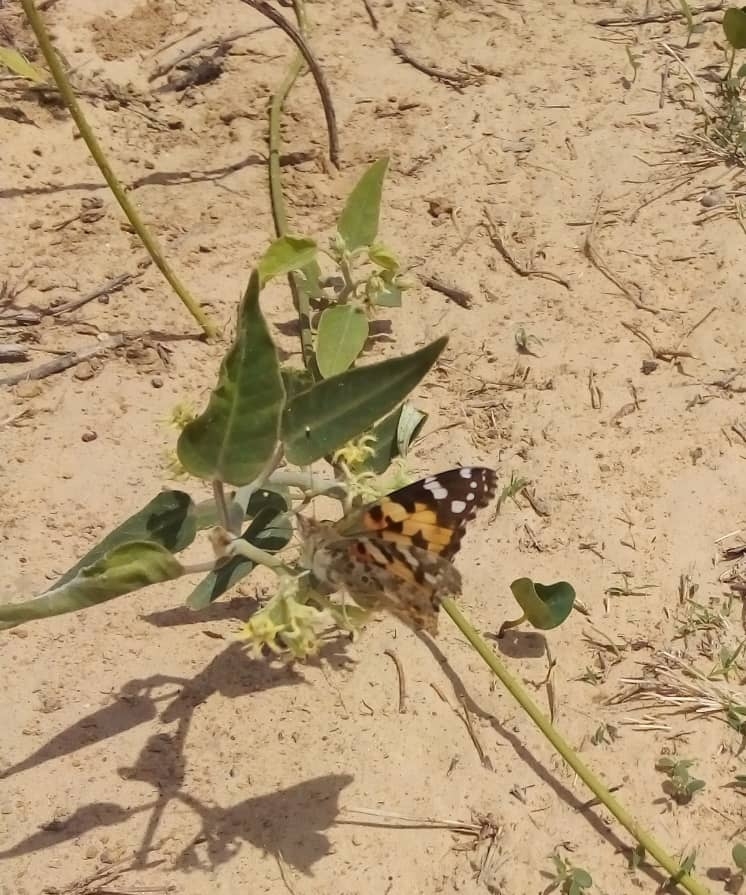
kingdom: Animalia
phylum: Arthropoda
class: Insecta
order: Lepidoptera
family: Nymphalidae
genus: Vanessa
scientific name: Vanessa cardui
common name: Painted lady
